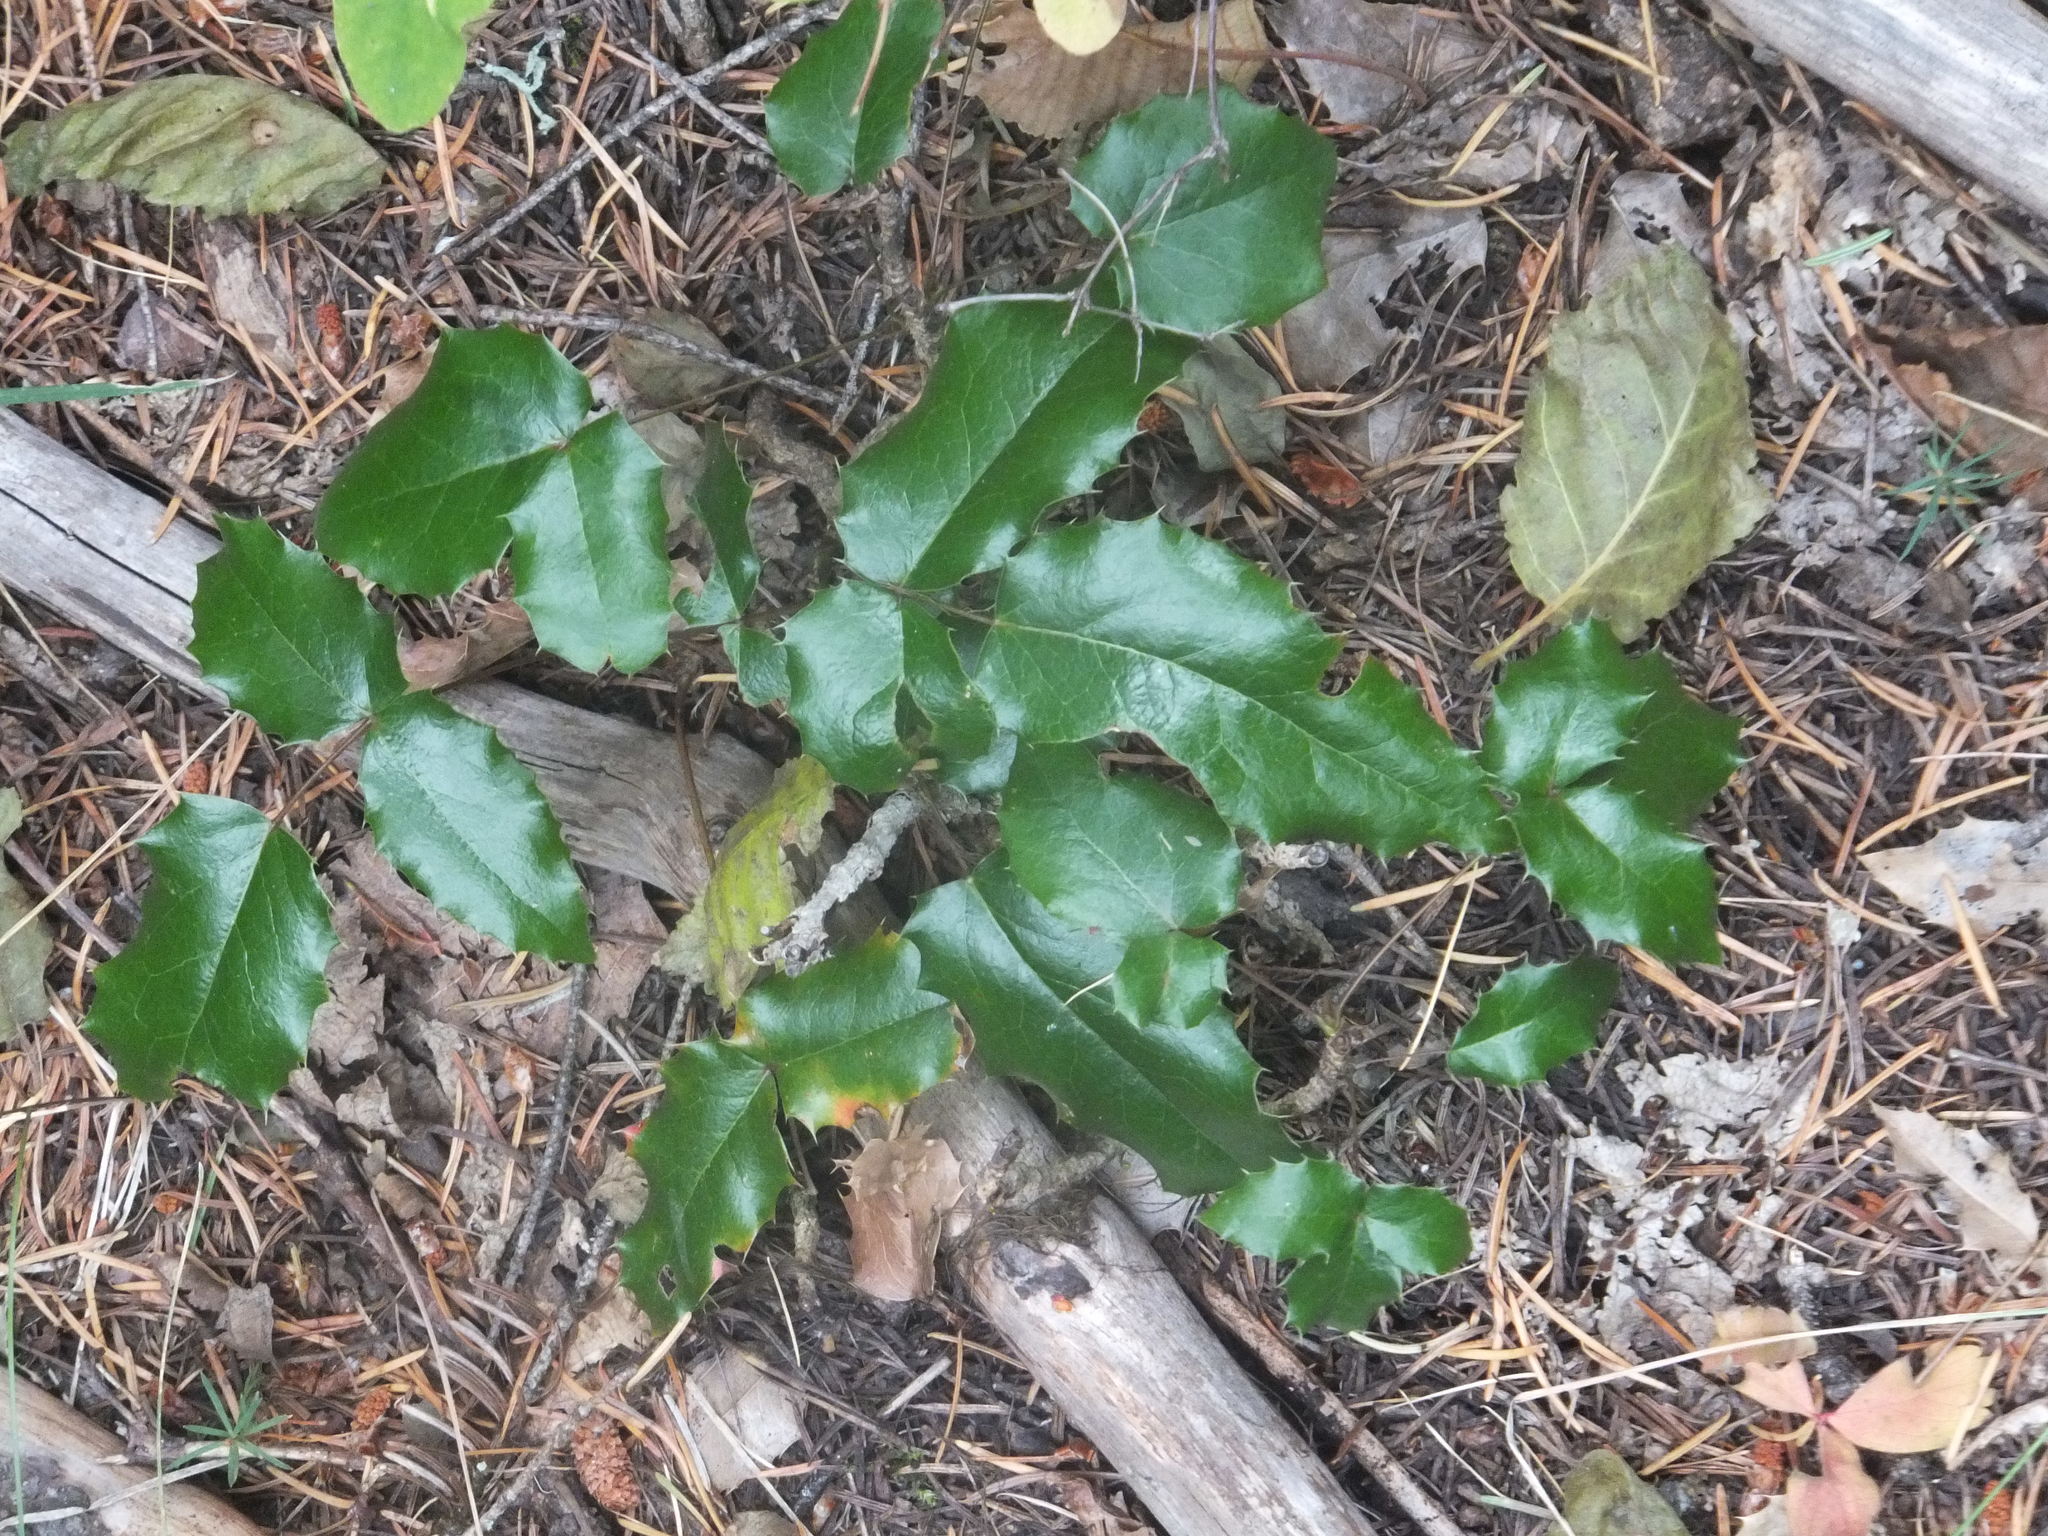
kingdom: Plantae
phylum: Tracheophyta
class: Magnoliopsida
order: Ranunculales
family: Berberidaceae
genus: Mahonia
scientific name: Mahonia aquifolium
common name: Oregon-grape
